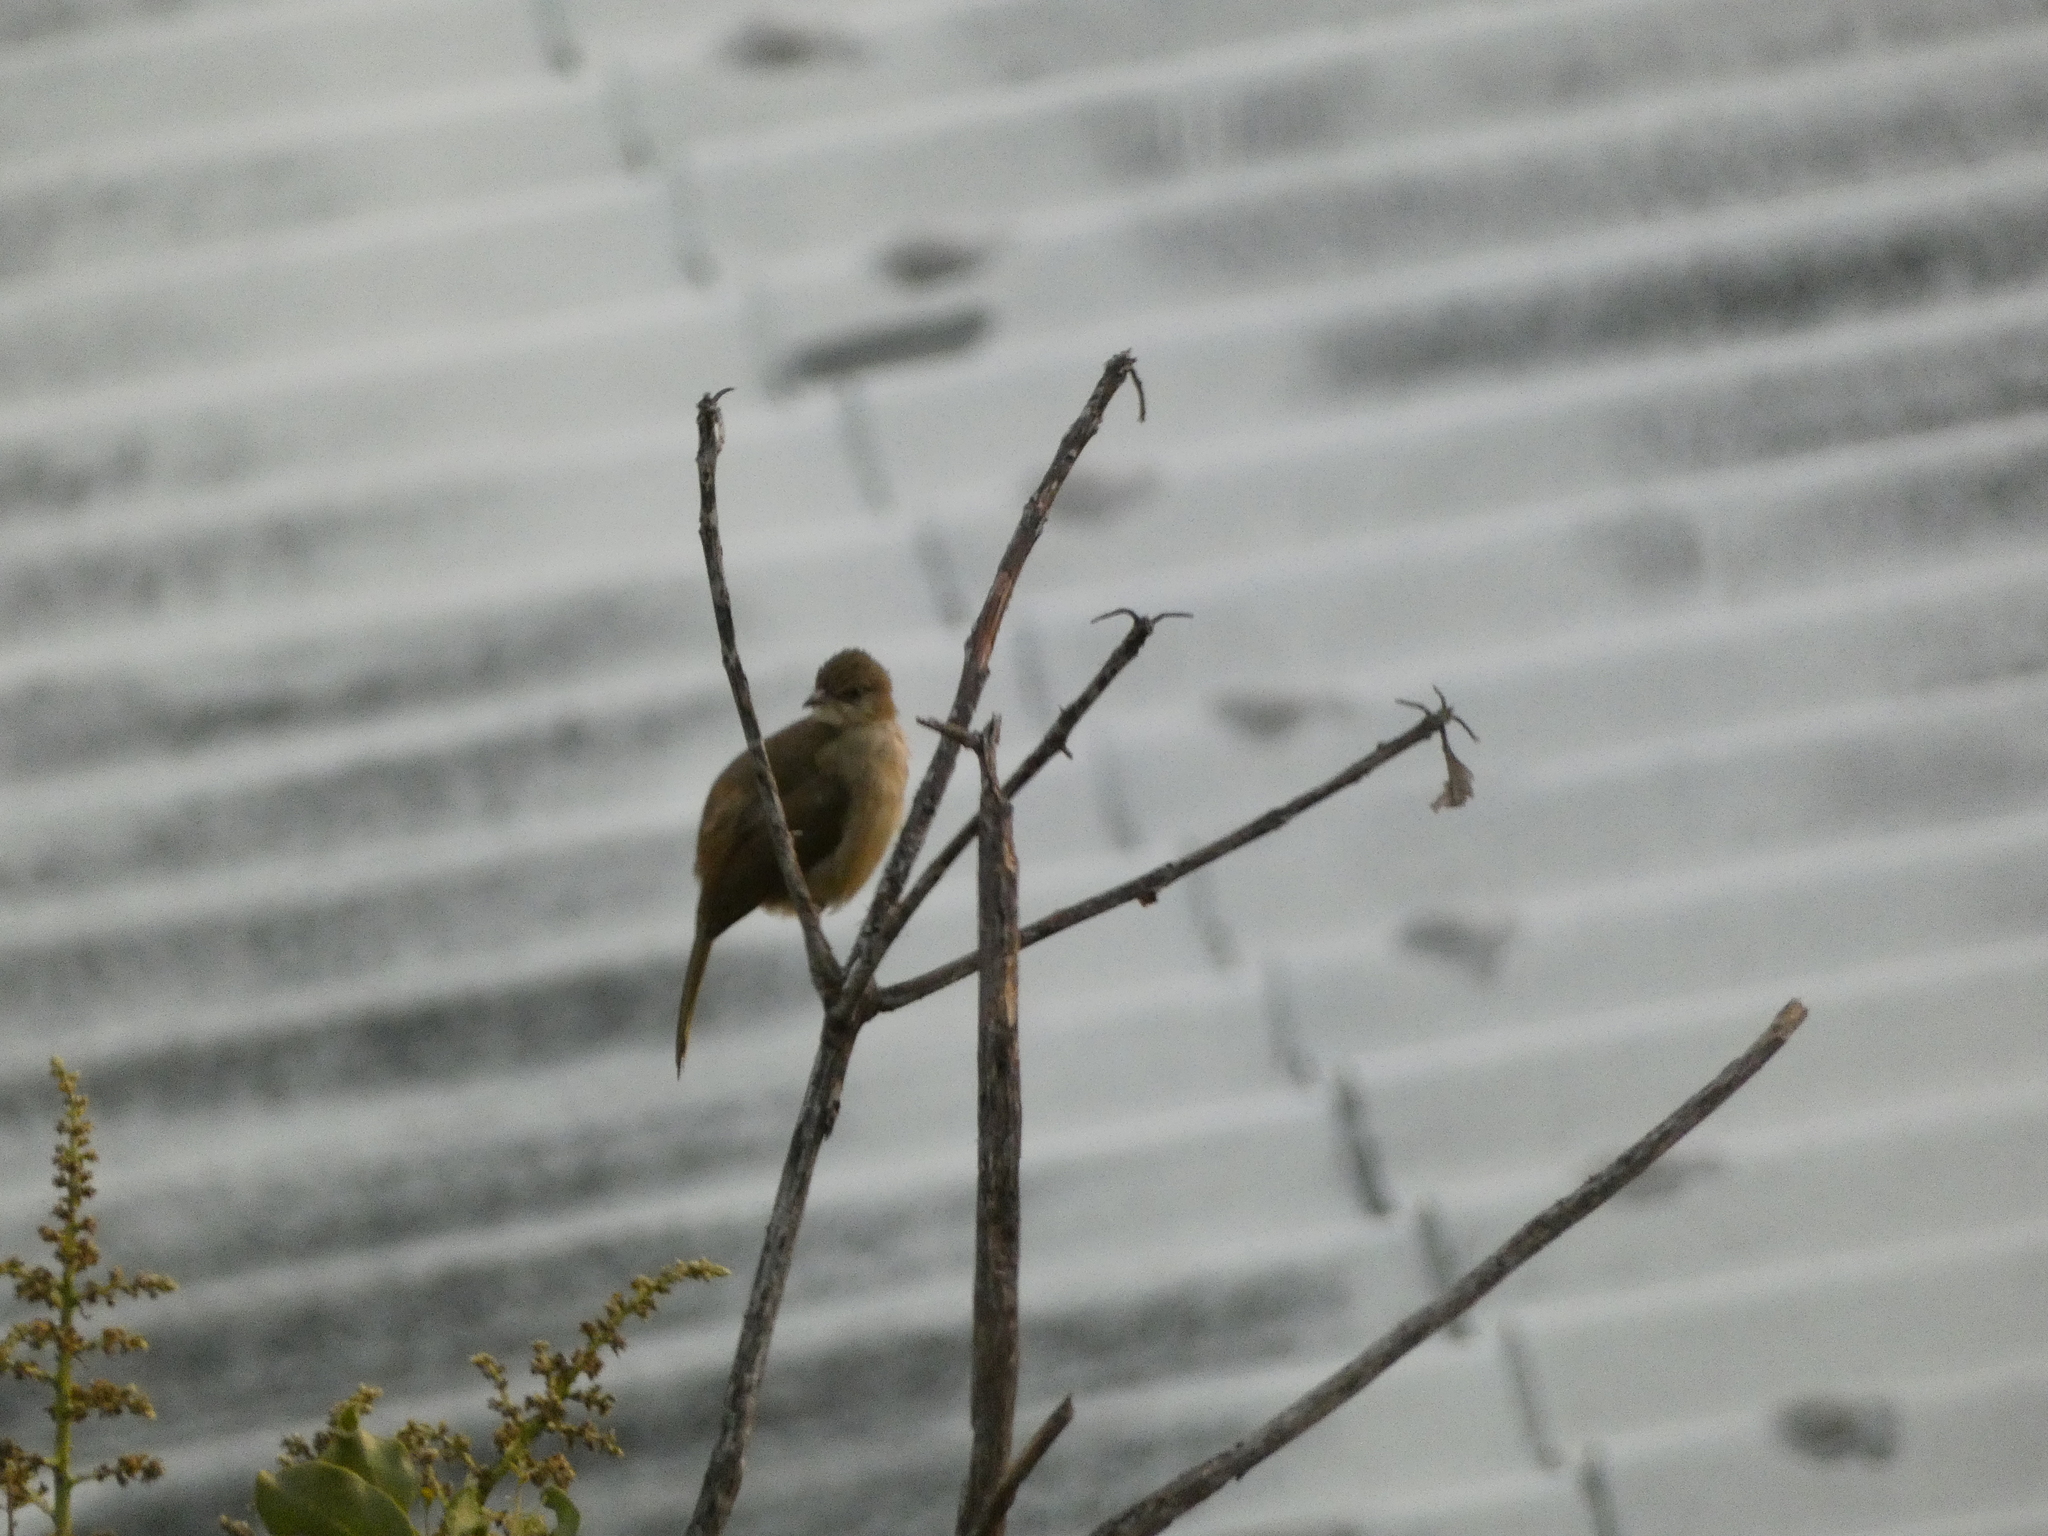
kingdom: Animalia
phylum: Chordata
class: Aves
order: Passeriformes
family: Pycnonotidae
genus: Pycnonotus
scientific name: Pycnonotus blanfordi
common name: Streak-eared bulbul
